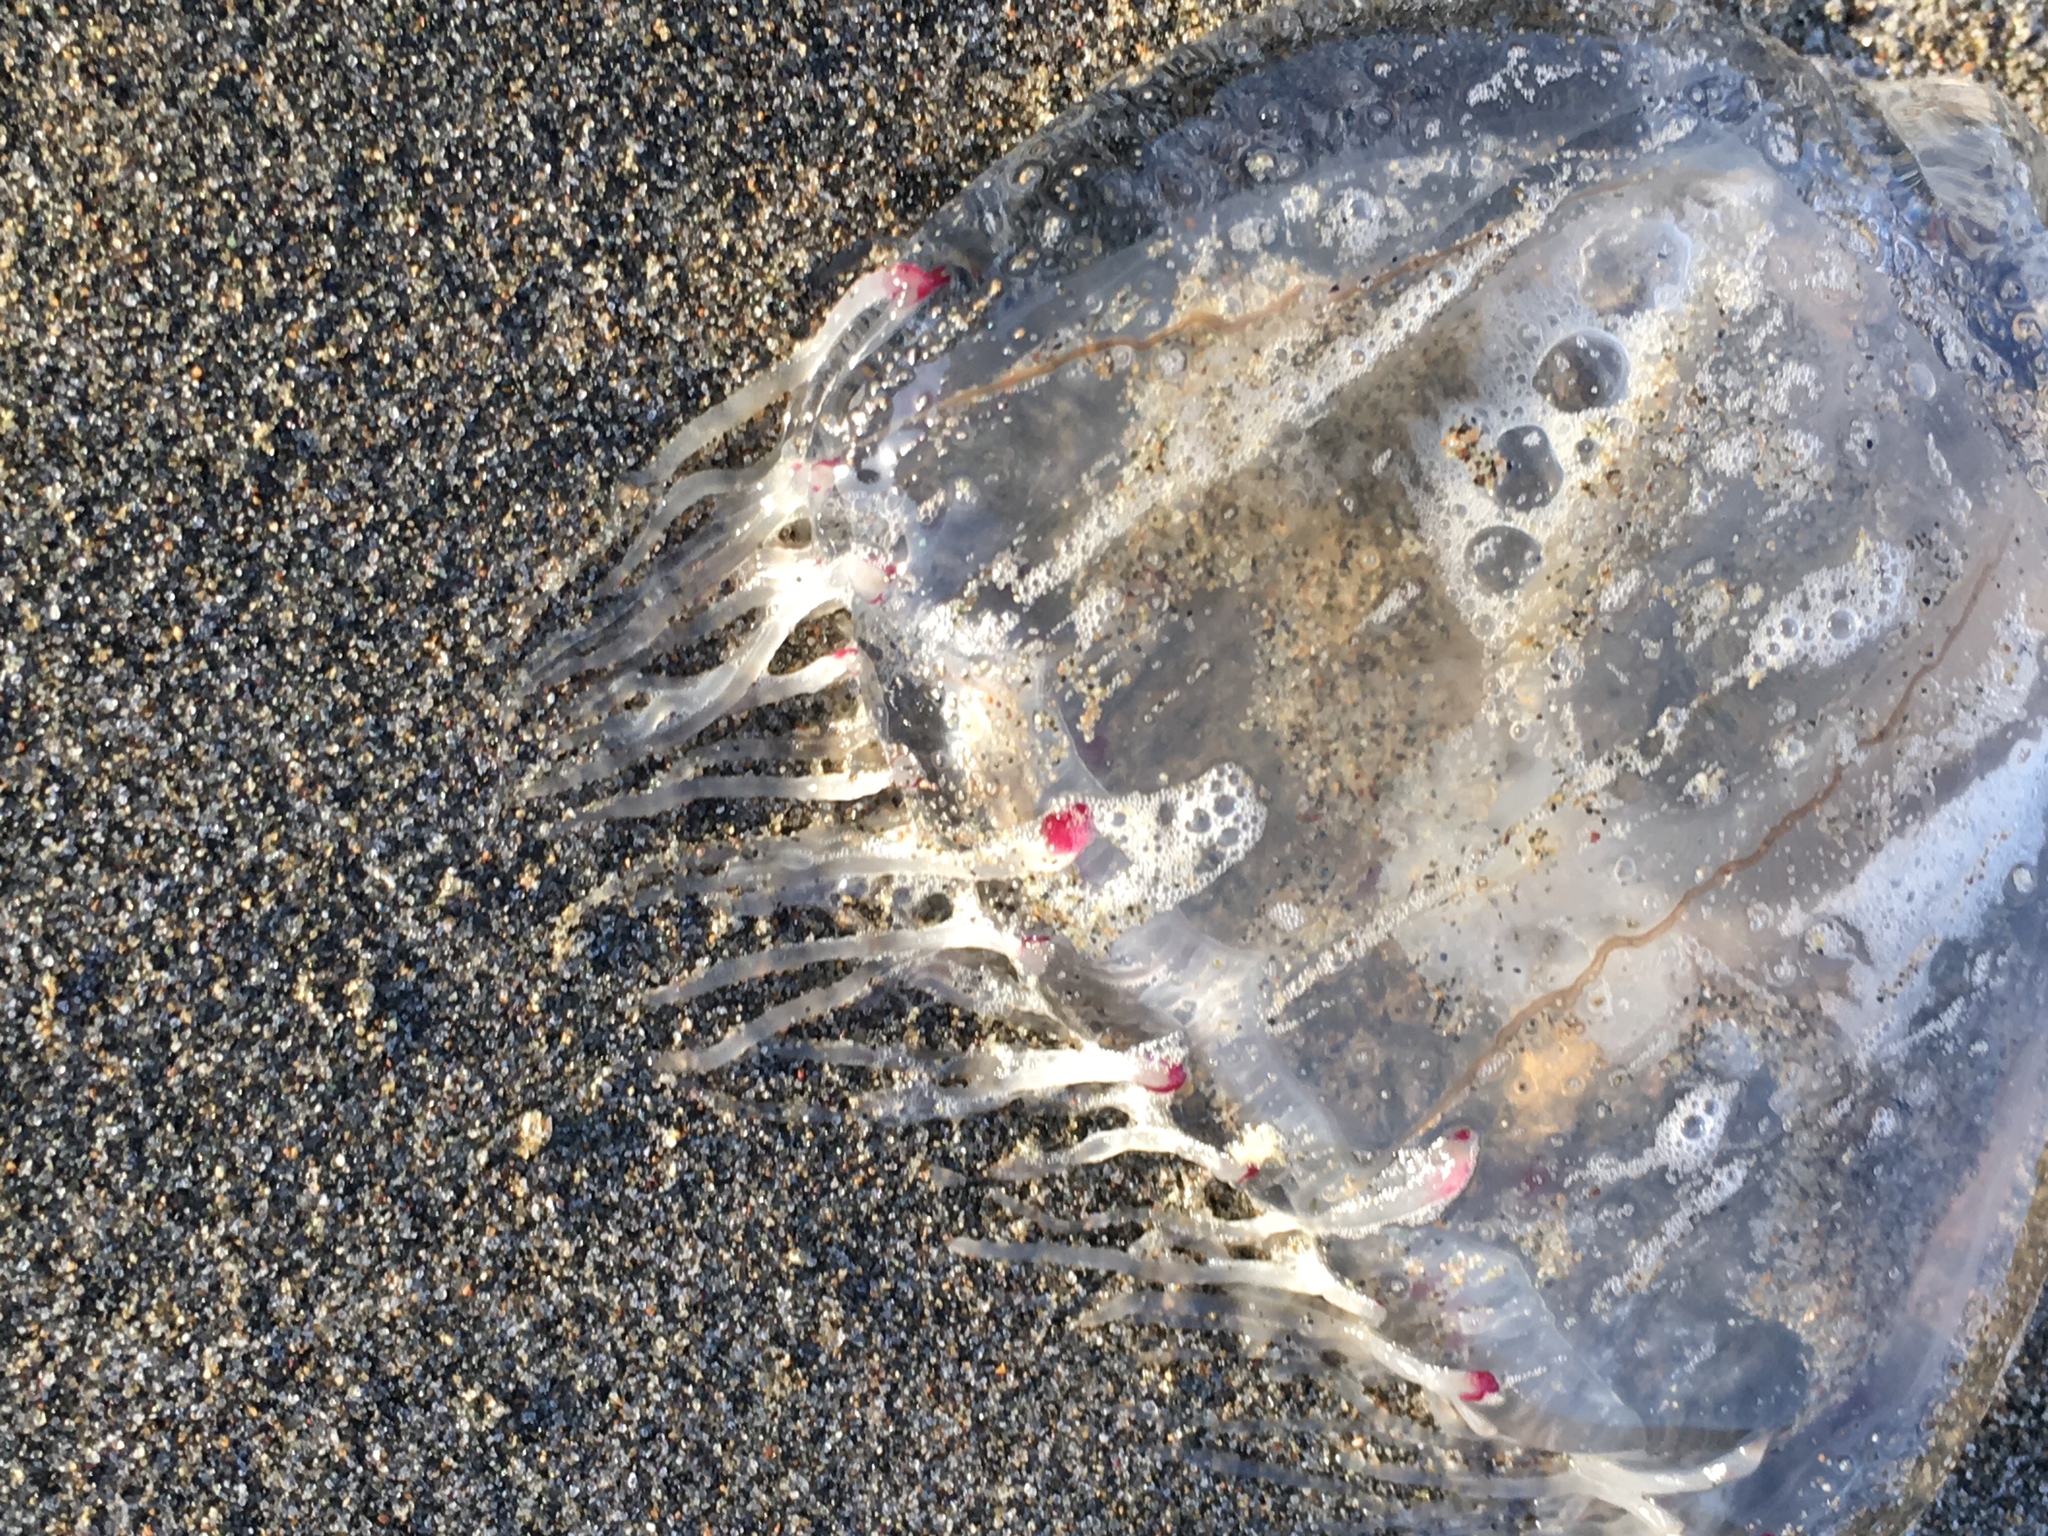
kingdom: Animalia
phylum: Cnidaria
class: Hydrozoa
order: Anthoathecata
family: Corynidae
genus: Scrippsia
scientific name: Scrippsia pacifica
